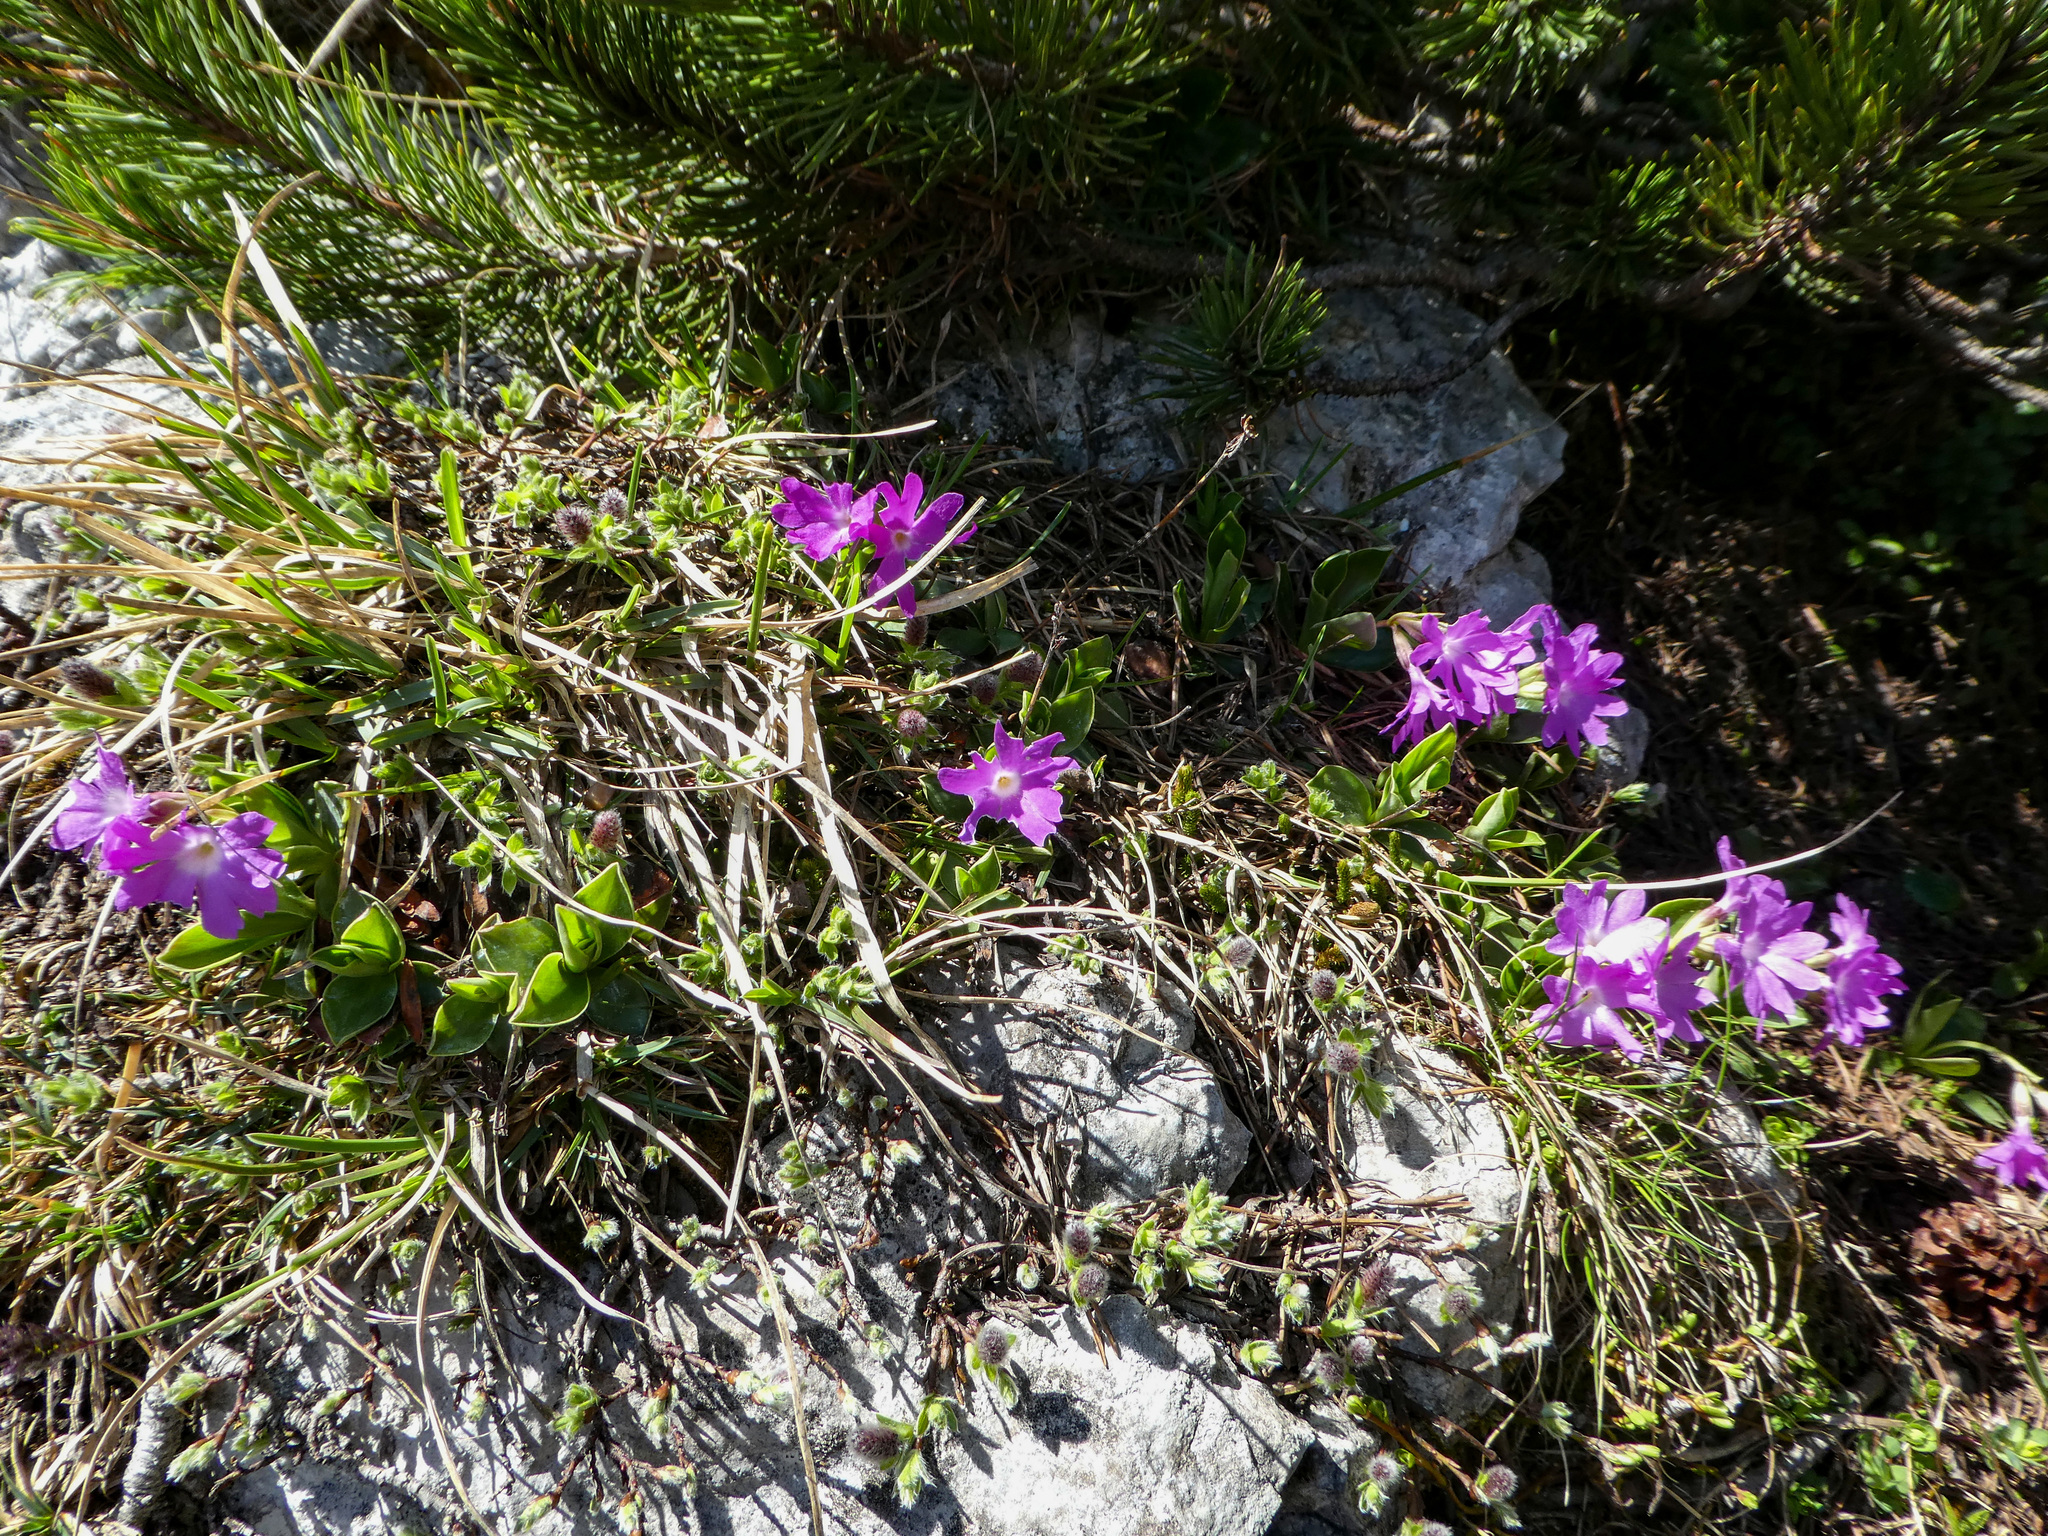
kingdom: Plantae
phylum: Tracheophyta
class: Magnoliopsida
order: Ericales
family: Primulaceae
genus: Primula
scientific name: Primula clusiana
